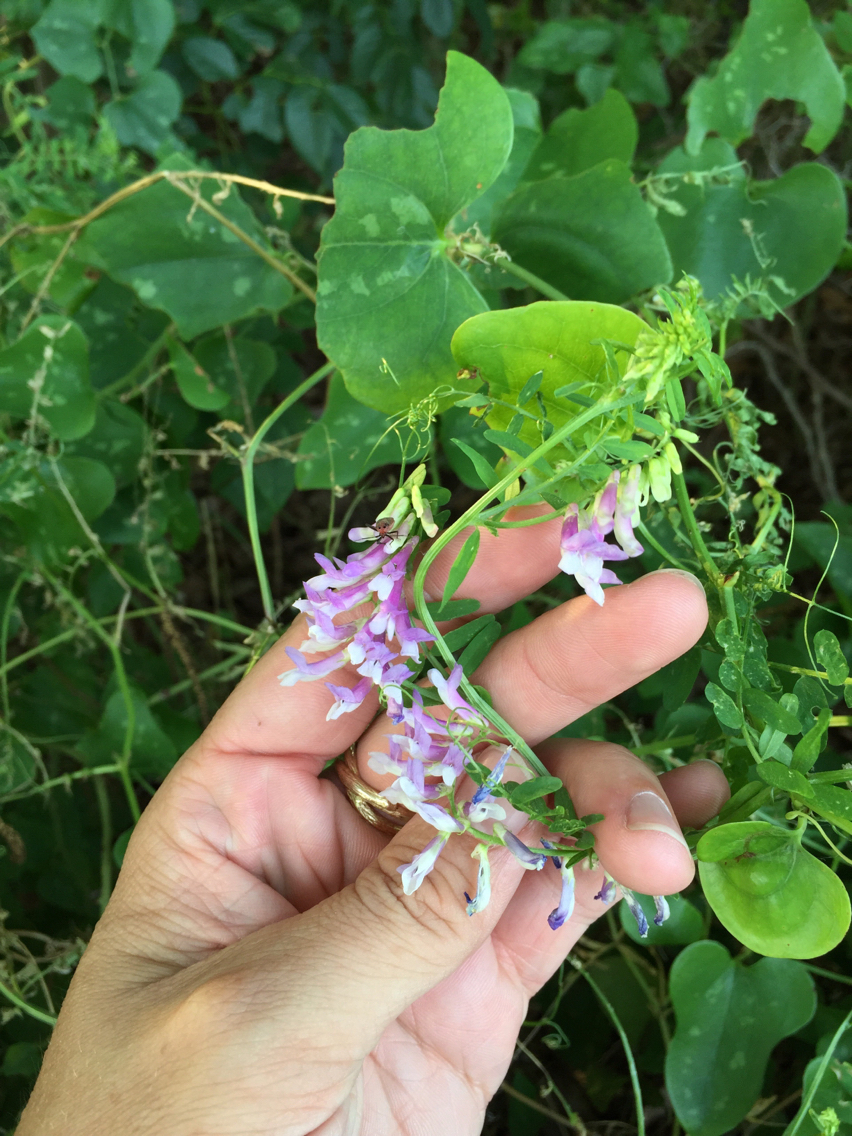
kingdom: Plantae
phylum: Tracheophyta
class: Magnoliopsida
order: Fabales
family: Fabaceae
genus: Vicia
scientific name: Vicia villosa
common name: Fodder vetch
